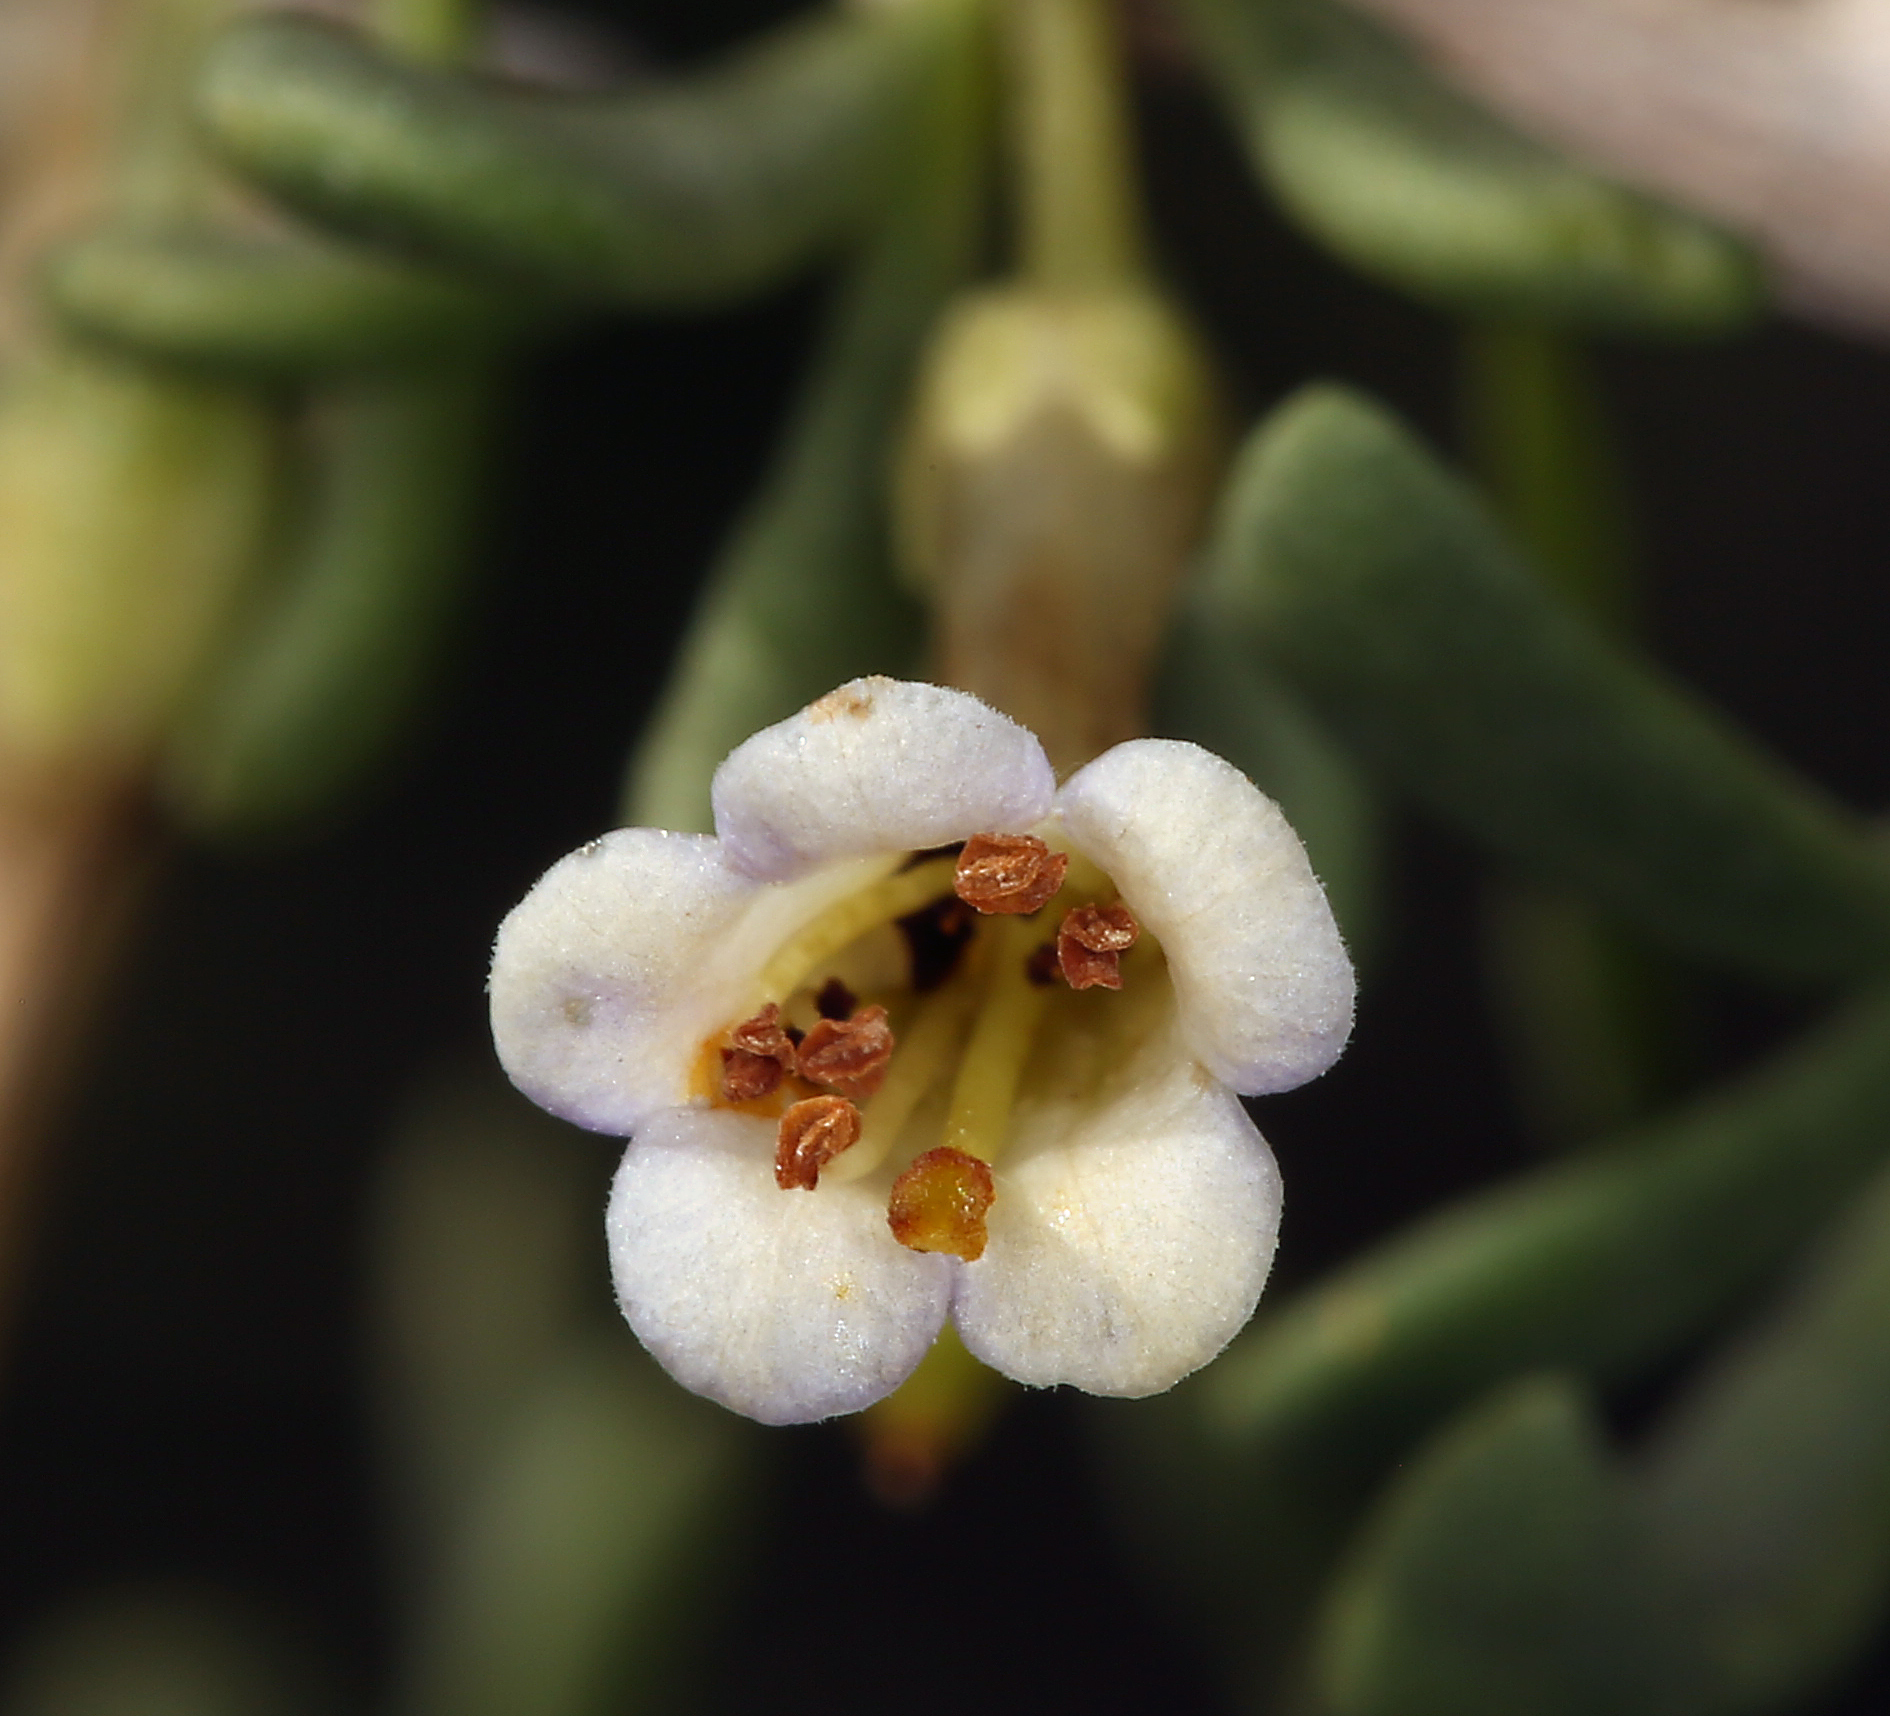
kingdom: Plantae
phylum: Tracheophyta
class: Magnoliopsida
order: Solanales
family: Solanaceae
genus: Lycium
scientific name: Lycium andersonii
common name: Water-jacket
